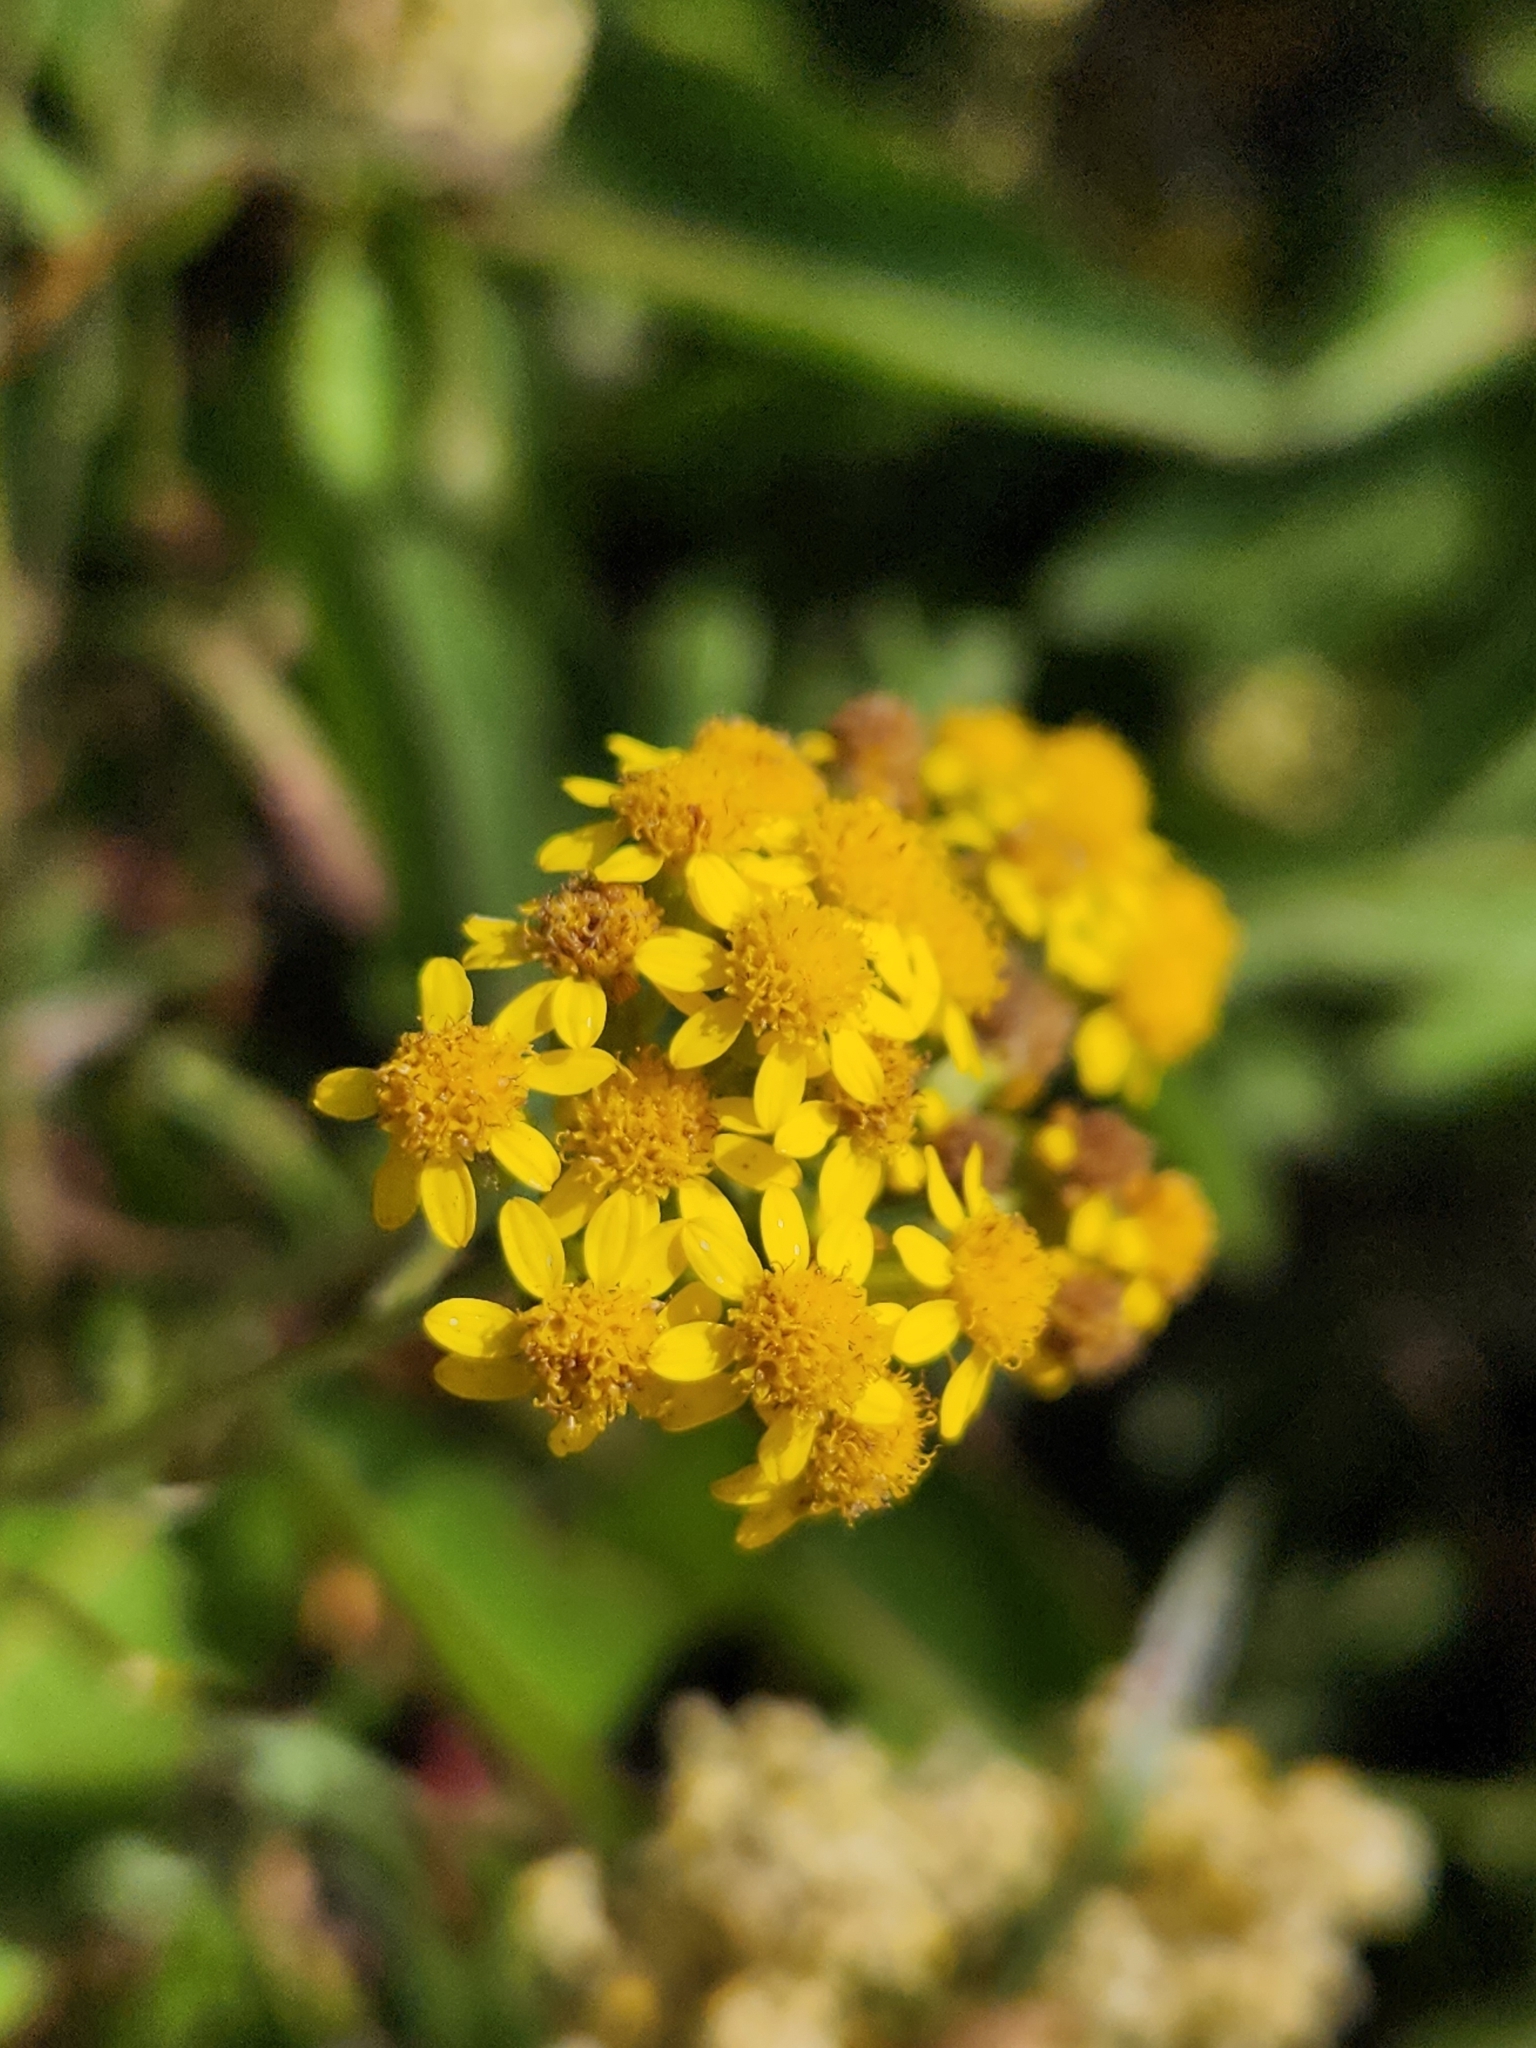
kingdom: Plantae
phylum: Tracheophyta
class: Magnoliopsida
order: Asterales
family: Asteraceae
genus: Eriophyllum
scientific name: Eriophyllum confertiflorum
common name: Golden-yarrow
